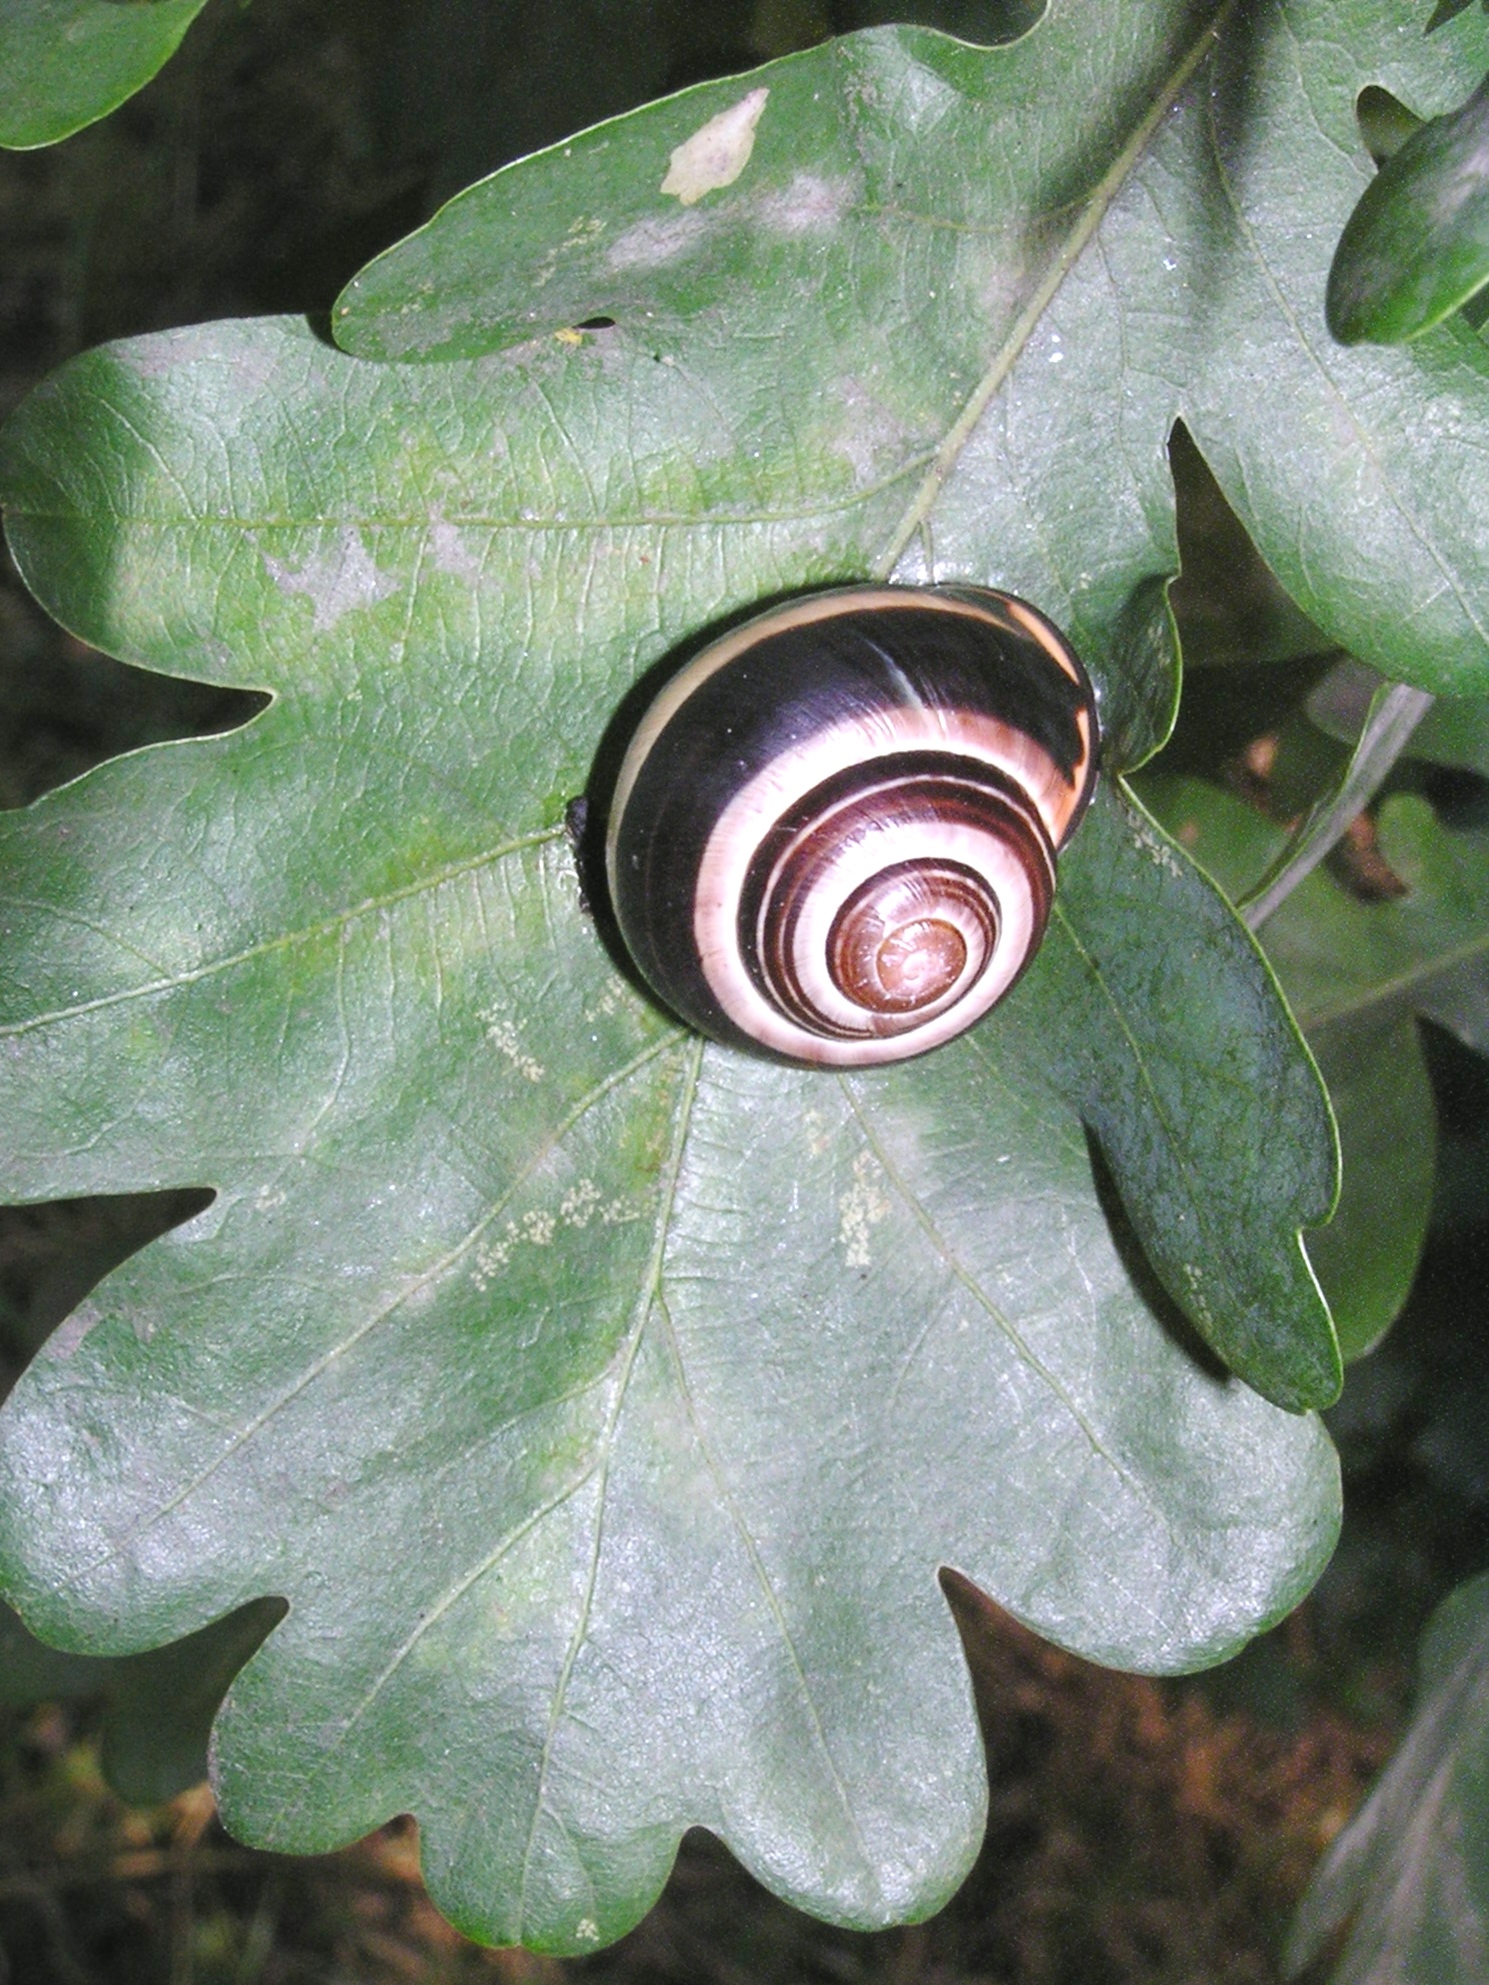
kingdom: Animalia
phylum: Mollusca
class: Gastropoda
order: Stylommatophora
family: Helicidae
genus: Cepaea
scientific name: Cepaea nemoralis
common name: Grovesnail
